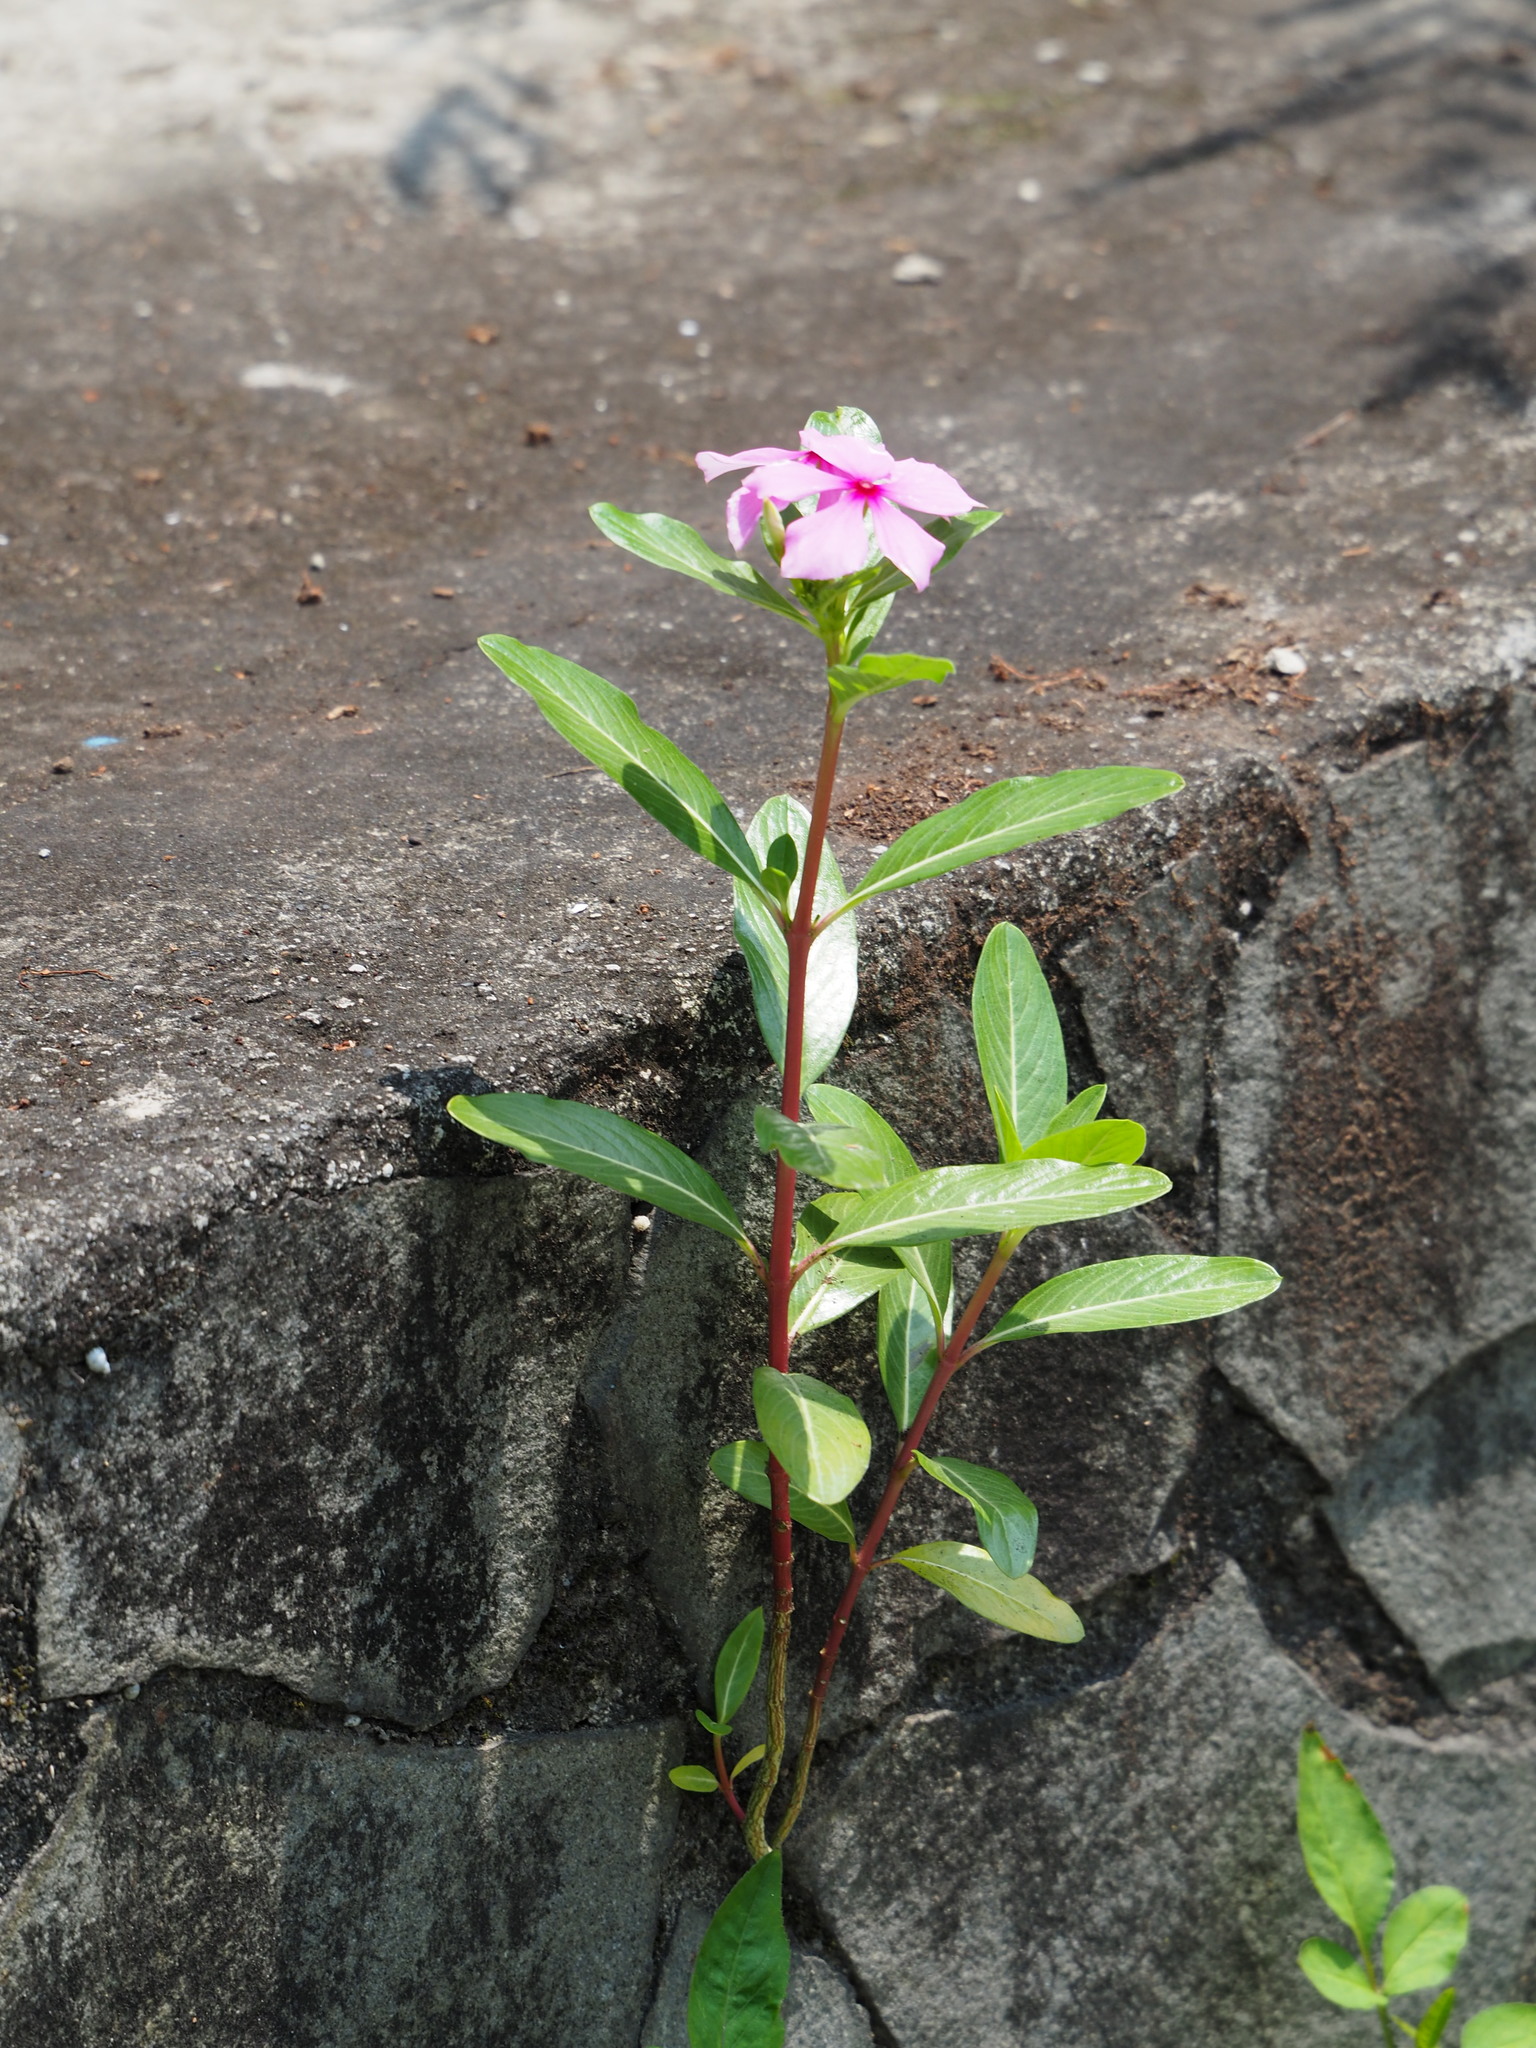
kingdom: Plantae
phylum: Tracheophyta
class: Magnoliopsida
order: Gentianales
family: Apocynaceae
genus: Catharanthus
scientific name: Catharanthus roseus
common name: Madagascar periwinkle
